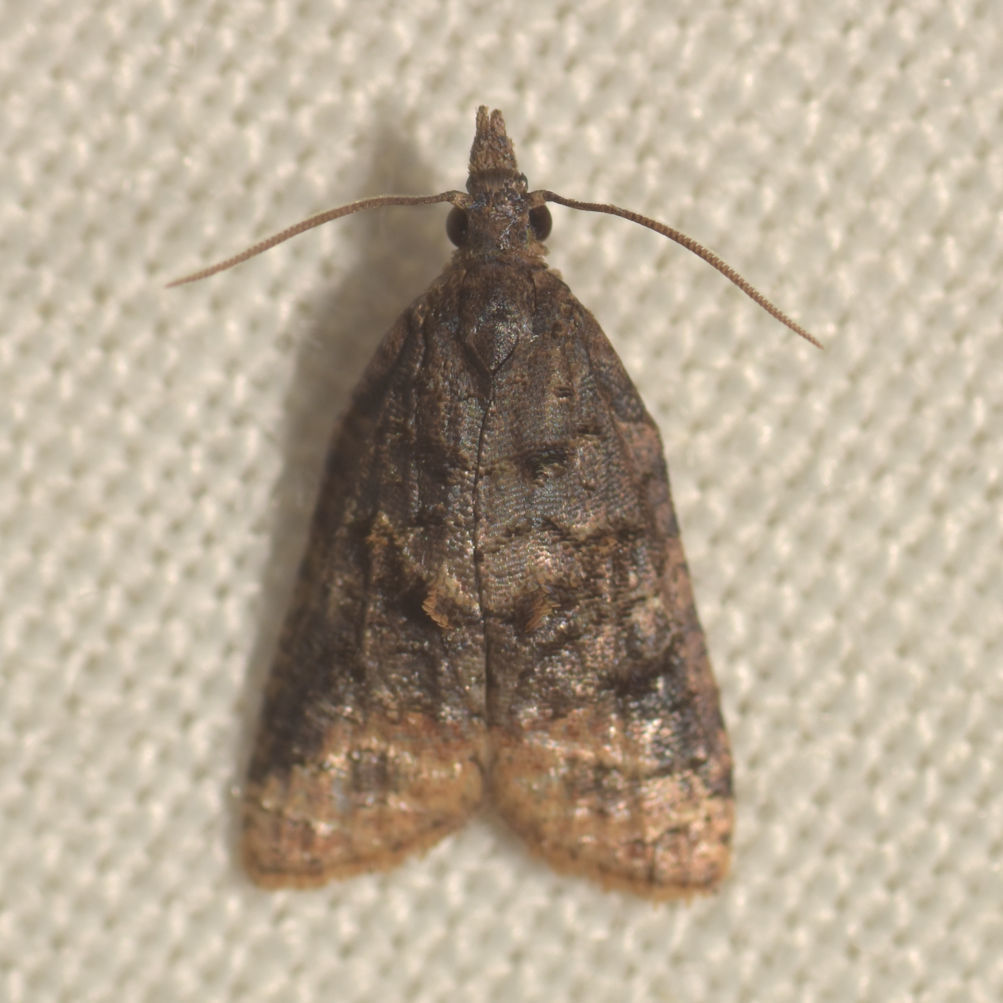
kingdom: Animalia
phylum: Arthropoda
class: Insecta
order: Lepidoptera
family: Tortricidae
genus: Platynota
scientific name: Platynota idaeusalis
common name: Tufted apple bud moth
